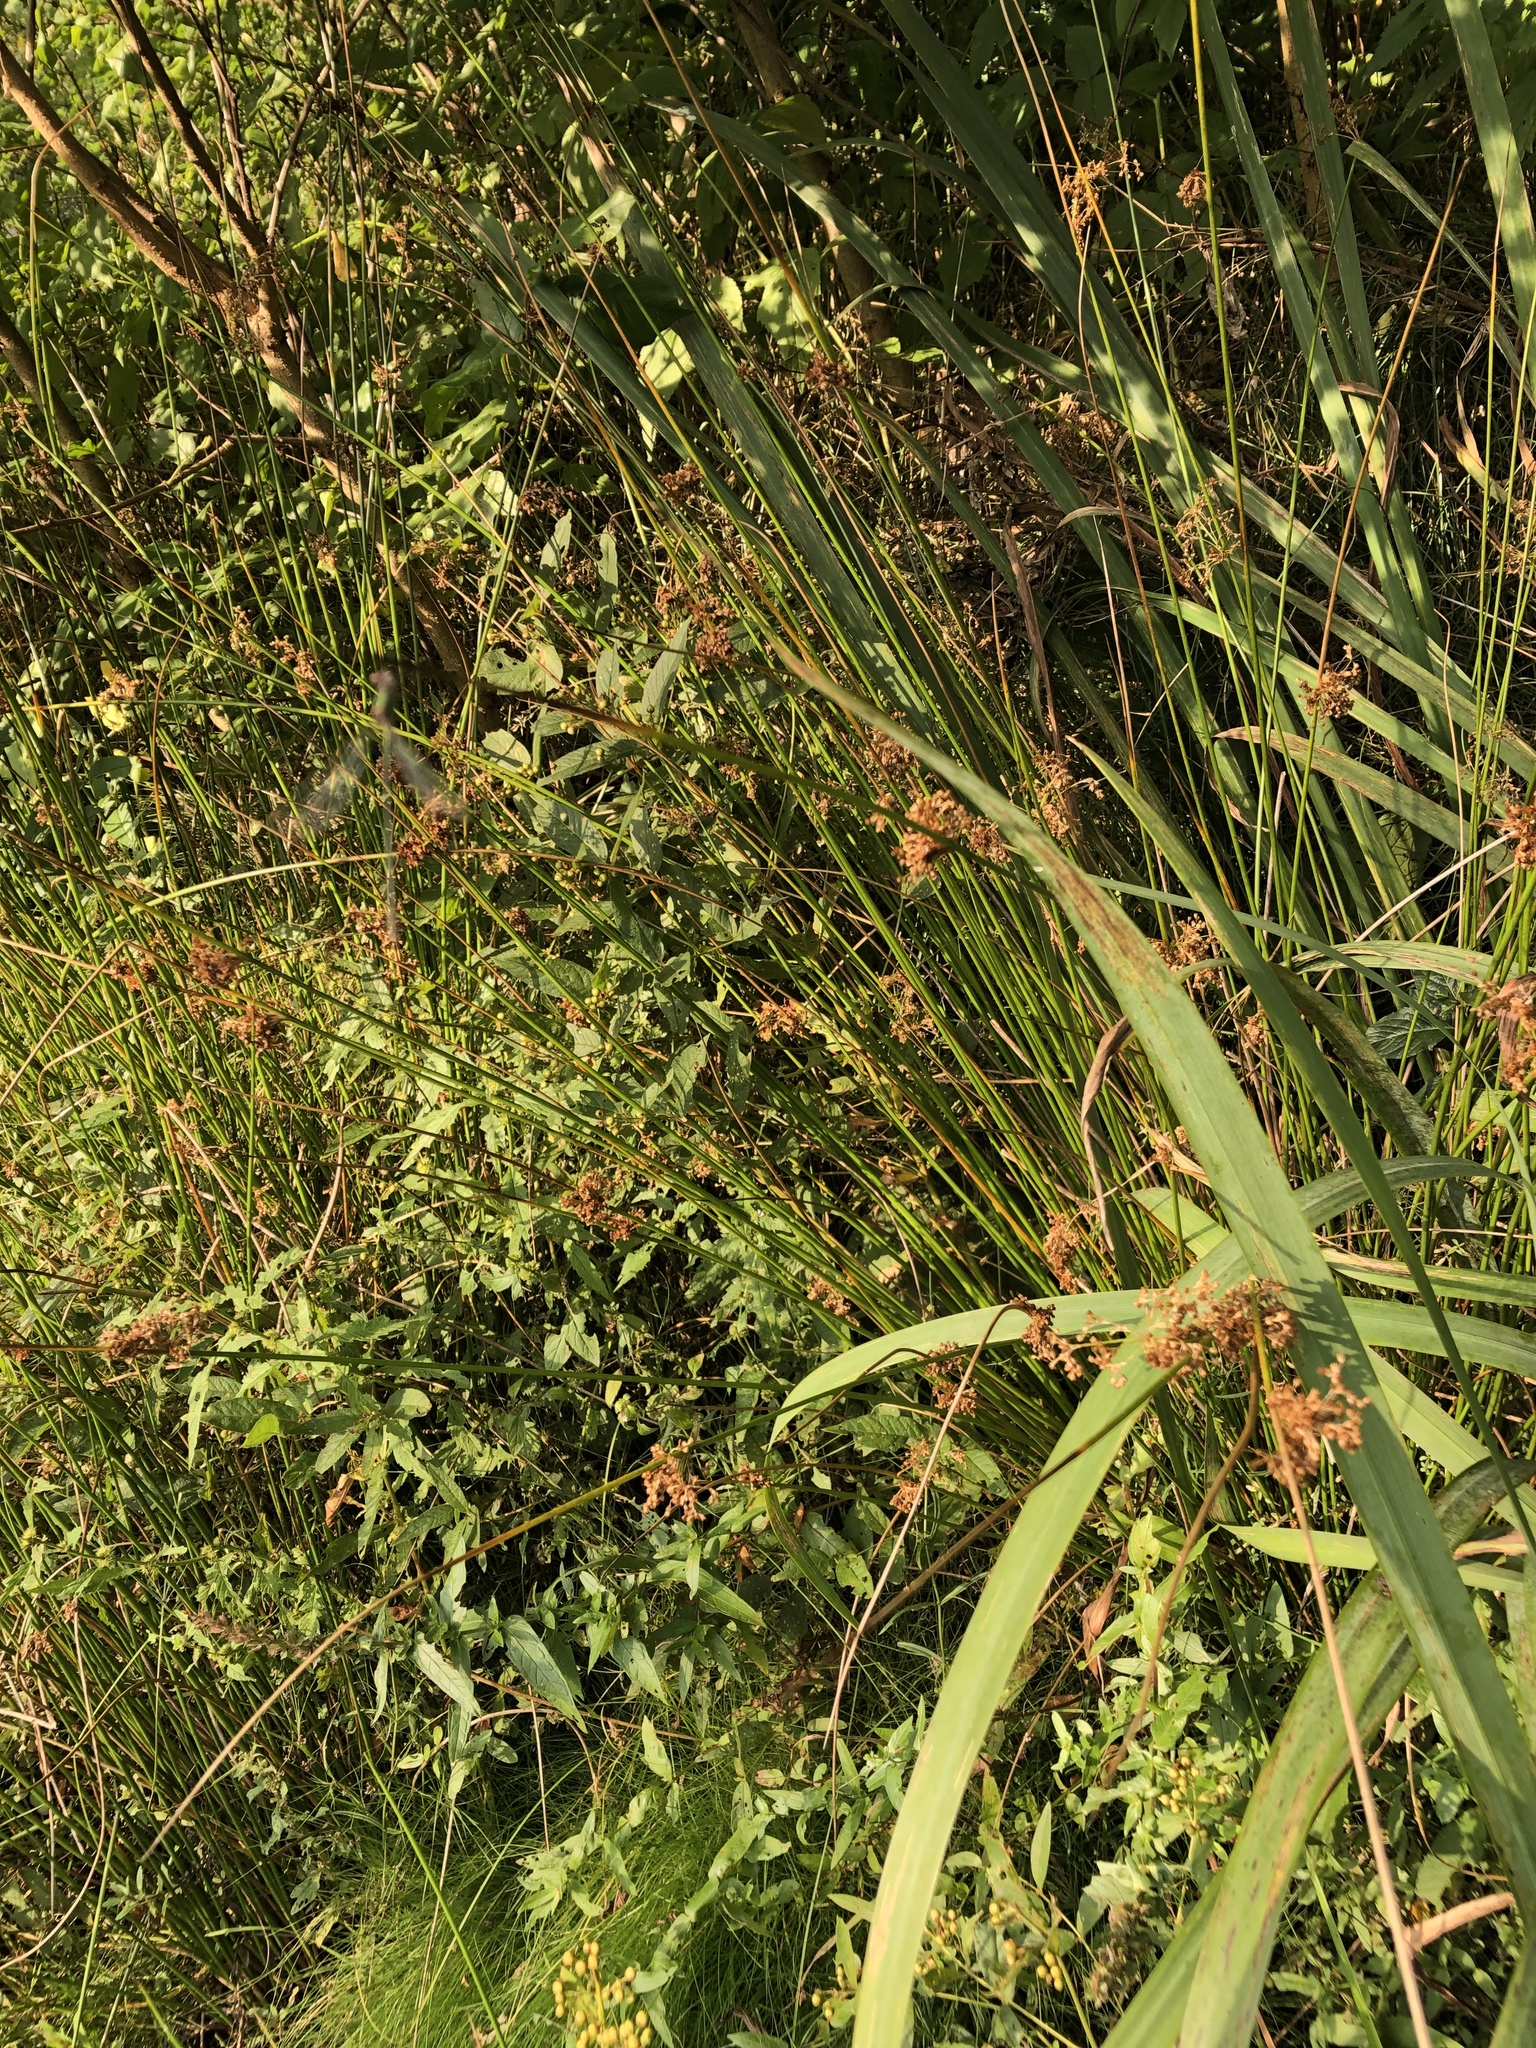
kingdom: Plantae
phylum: Tracheophyta
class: Liliopsida
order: Poales
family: Juncaceae
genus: Juncus
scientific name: Juncus effusus
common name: Soft rush
